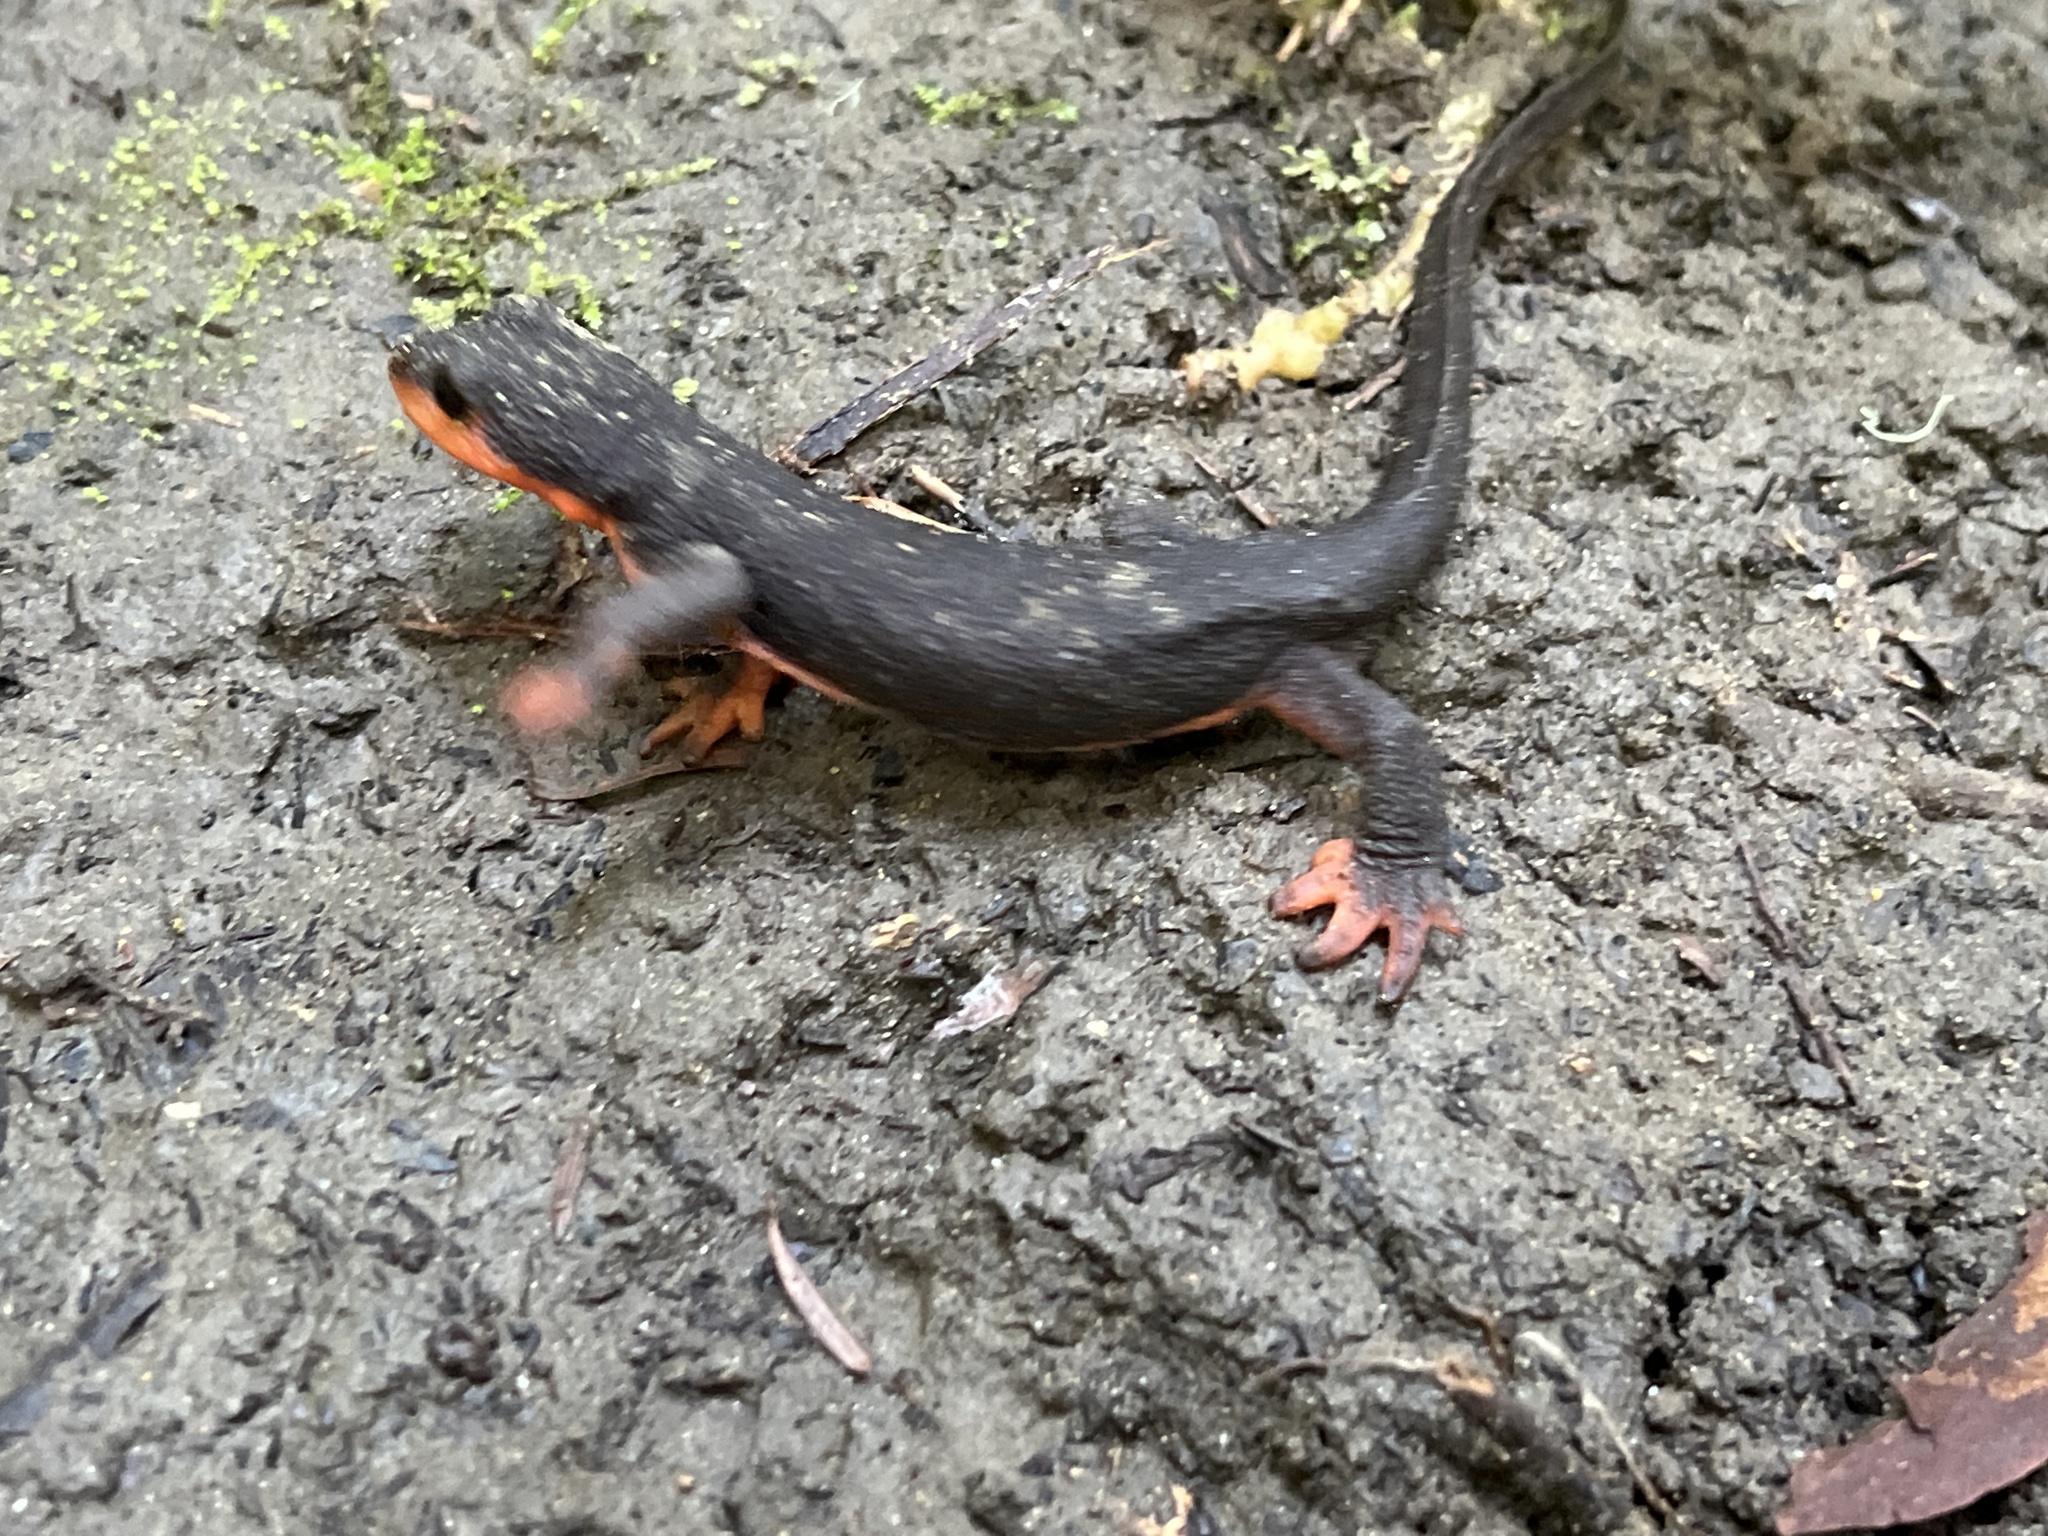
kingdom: Animalia
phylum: Chordata
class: Amphibia
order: Caudata
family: Salamandridae
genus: Taricha
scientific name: Taricha rivularis
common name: Red-bellied newt
